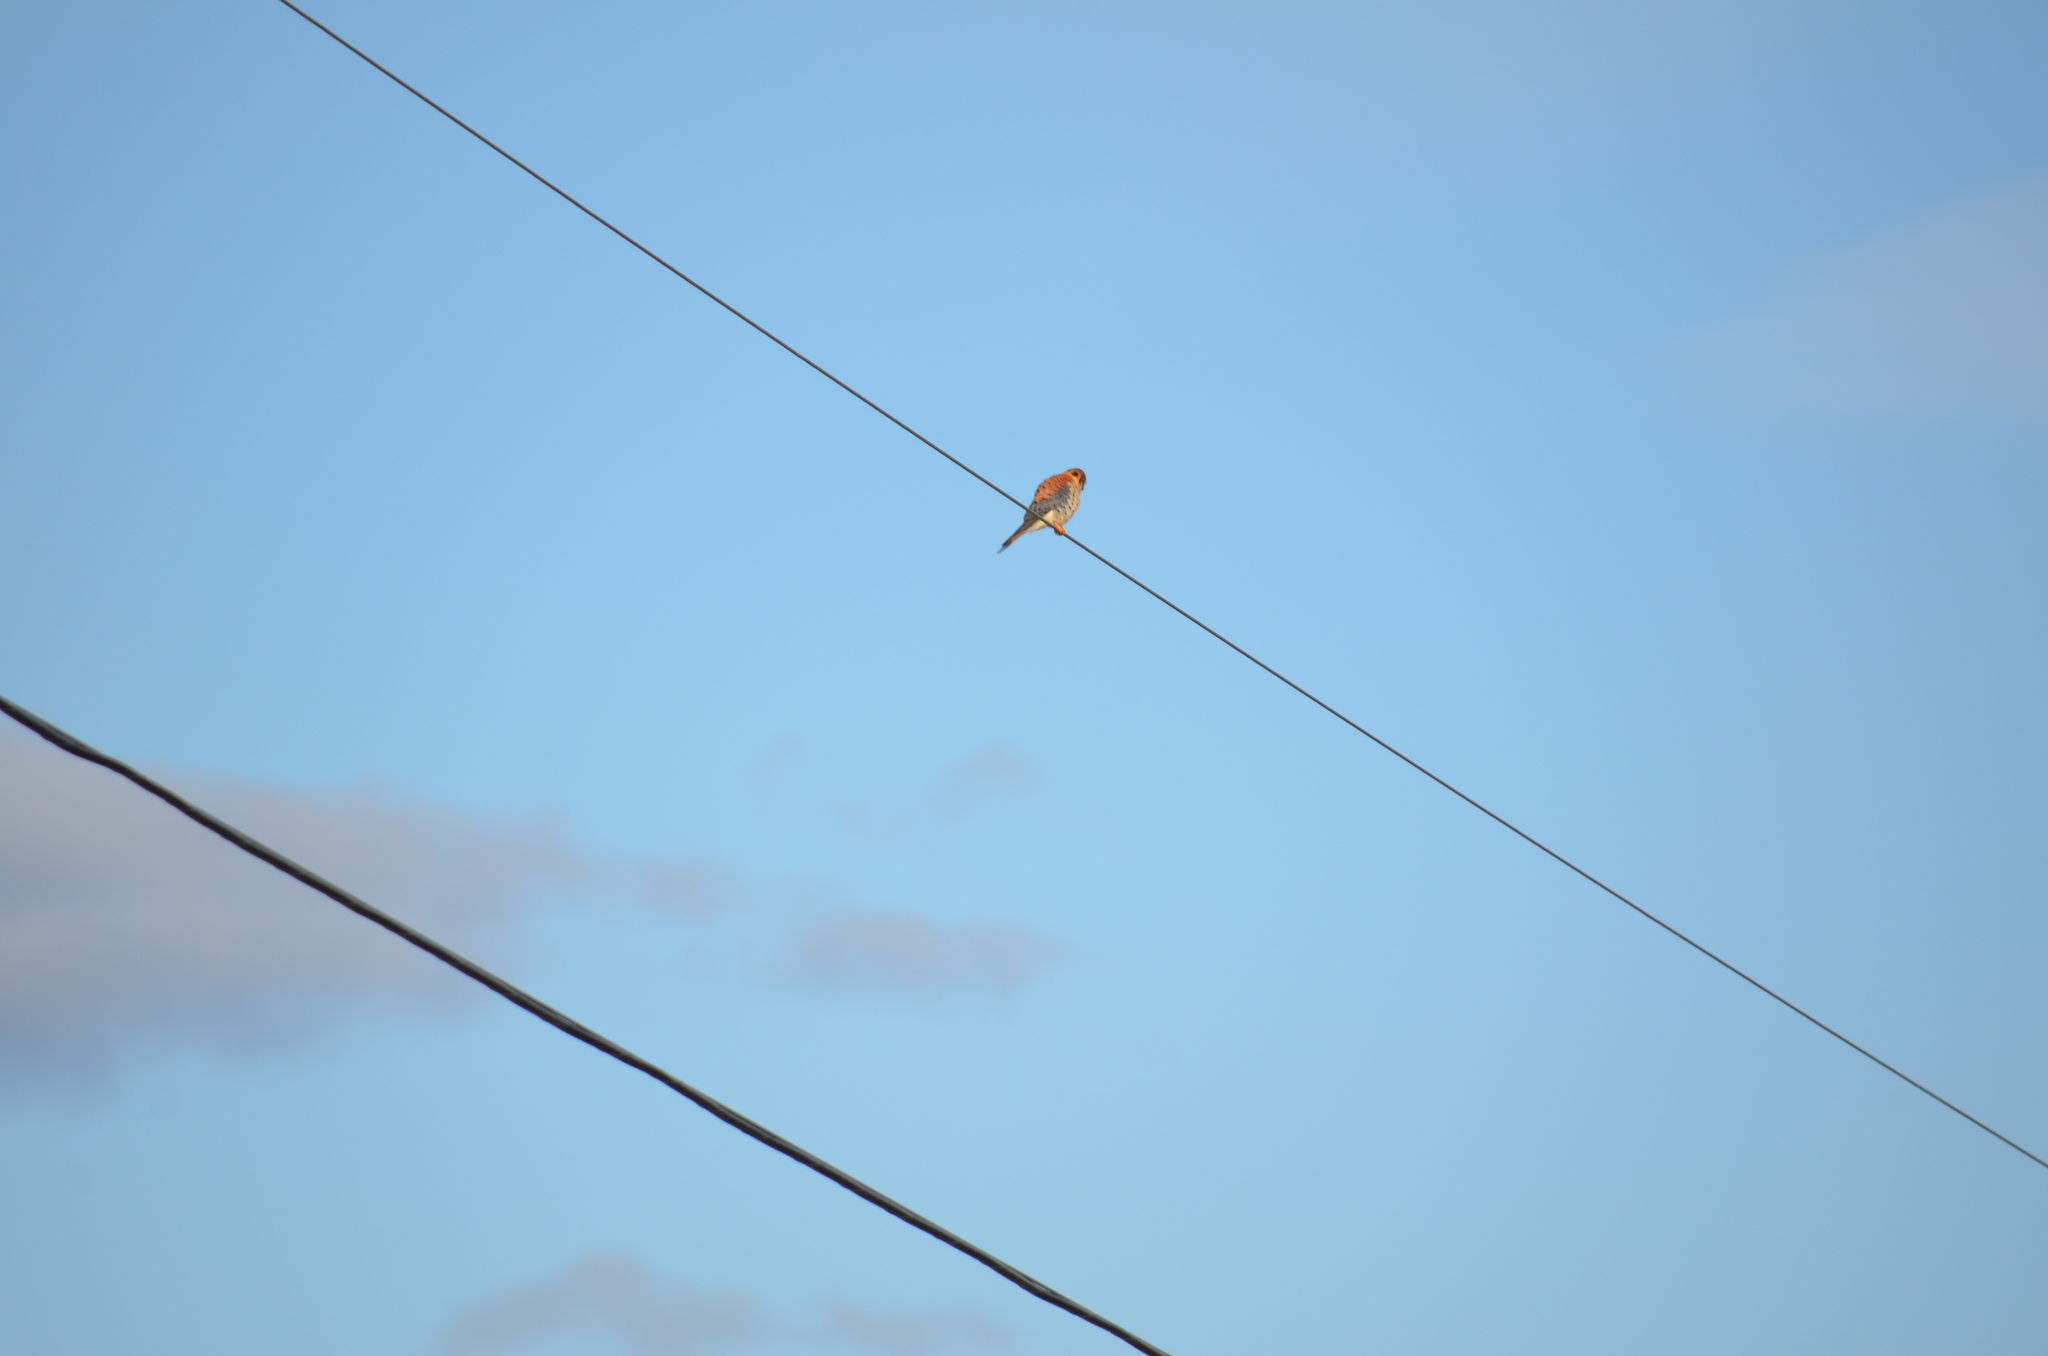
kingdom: Animalia
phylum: Chordata
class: Aves
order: Falconiformes
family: Falconidae
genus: Falco
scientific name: Falco sparverius
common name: American kestrel
